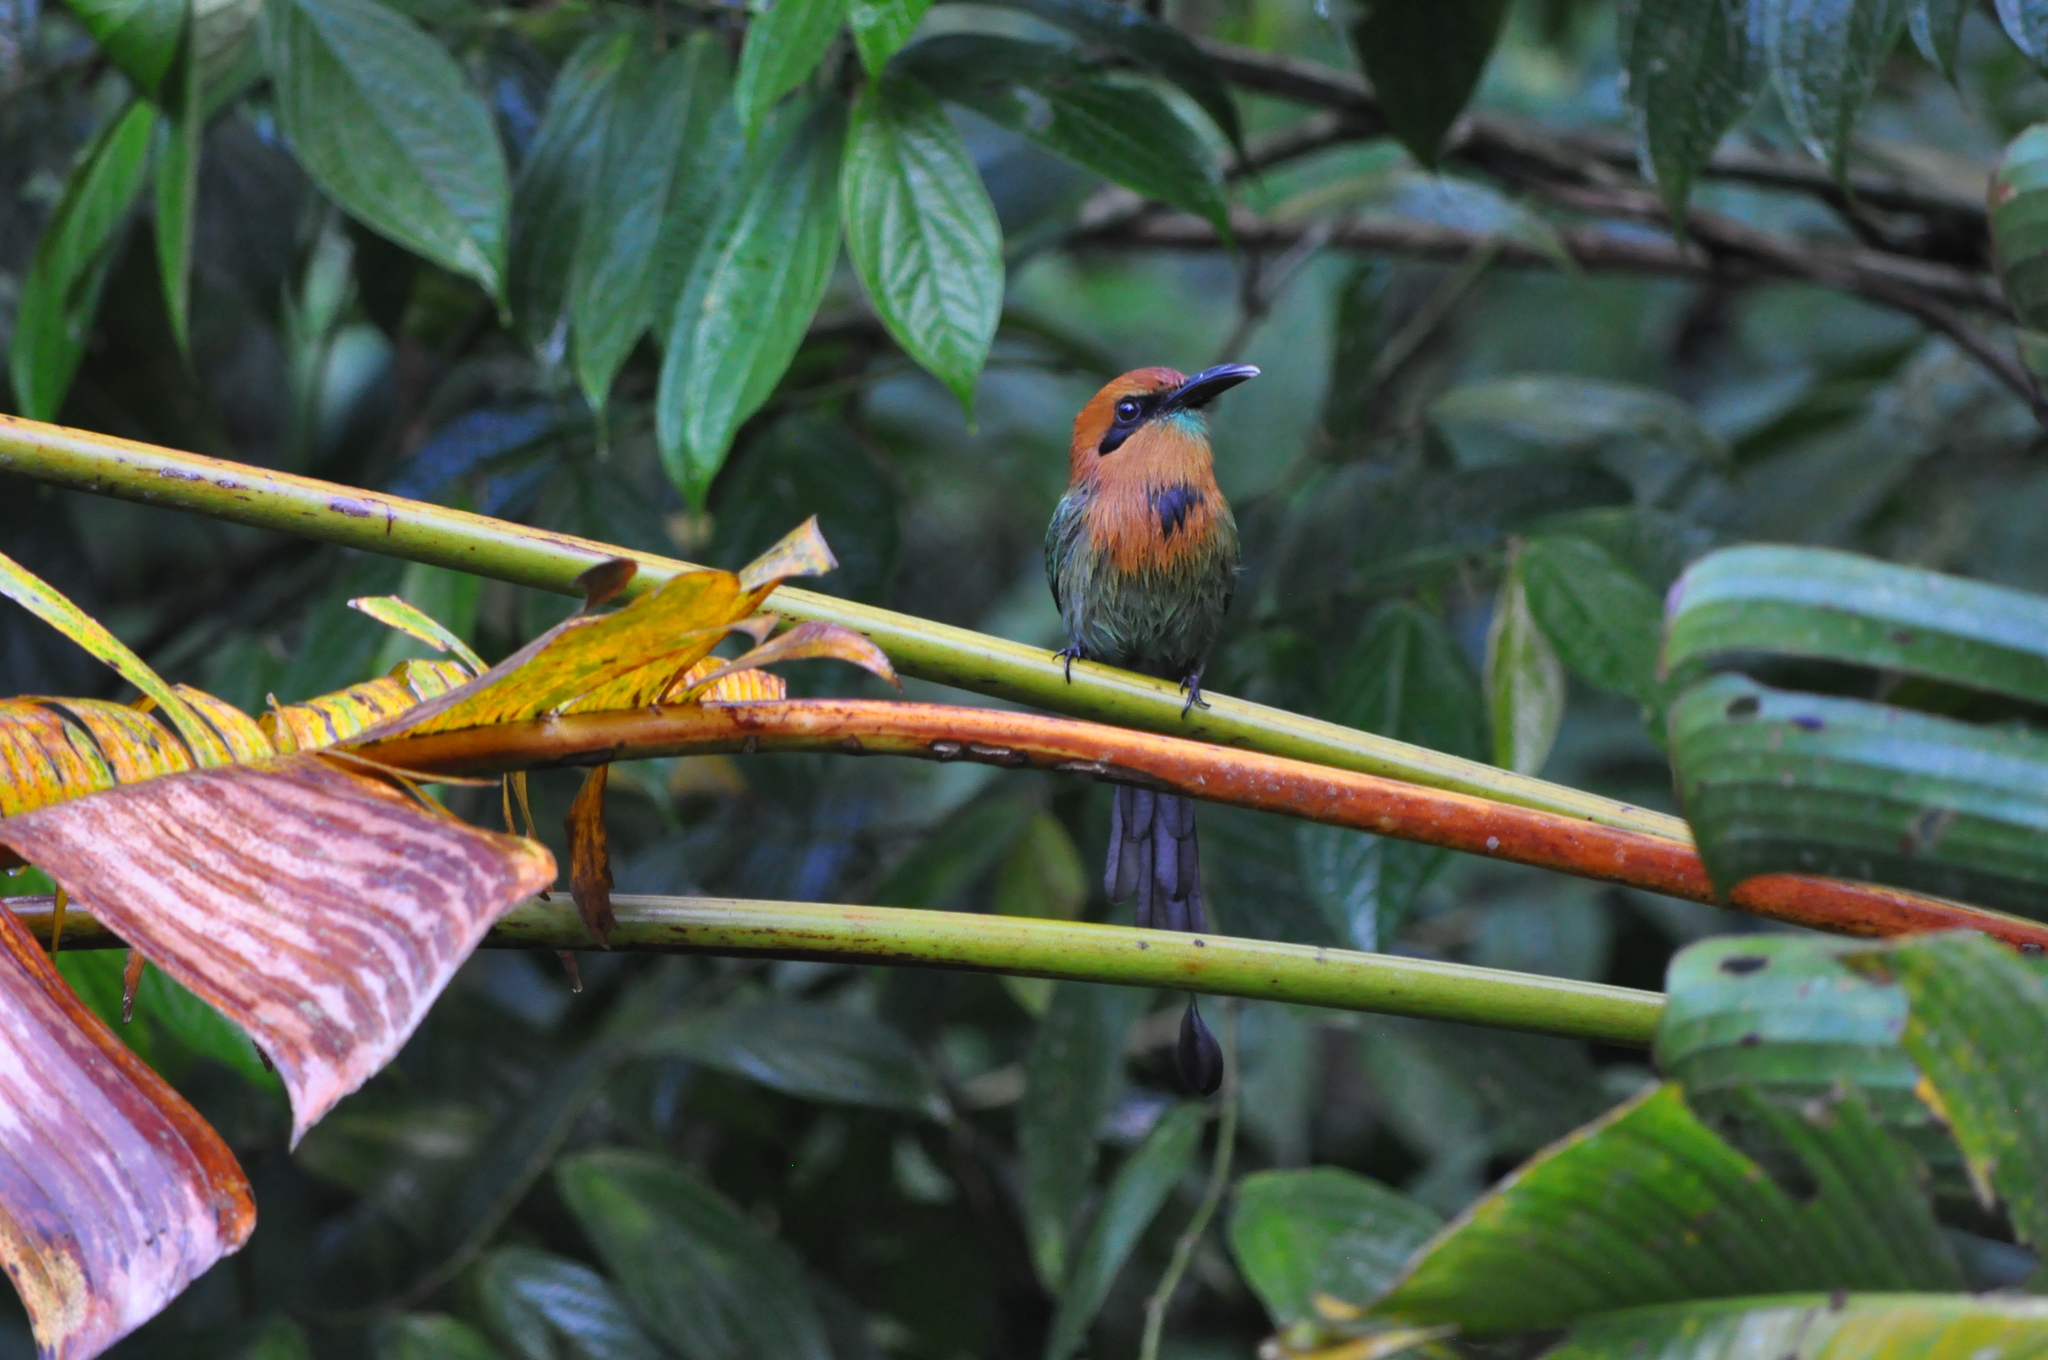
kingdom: Animalia
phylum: Chordata
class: Aves
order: Coraciiformes
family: Momotidae
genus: Electron
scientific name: Electron platyrhynchum
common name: Broad-billed motmot
